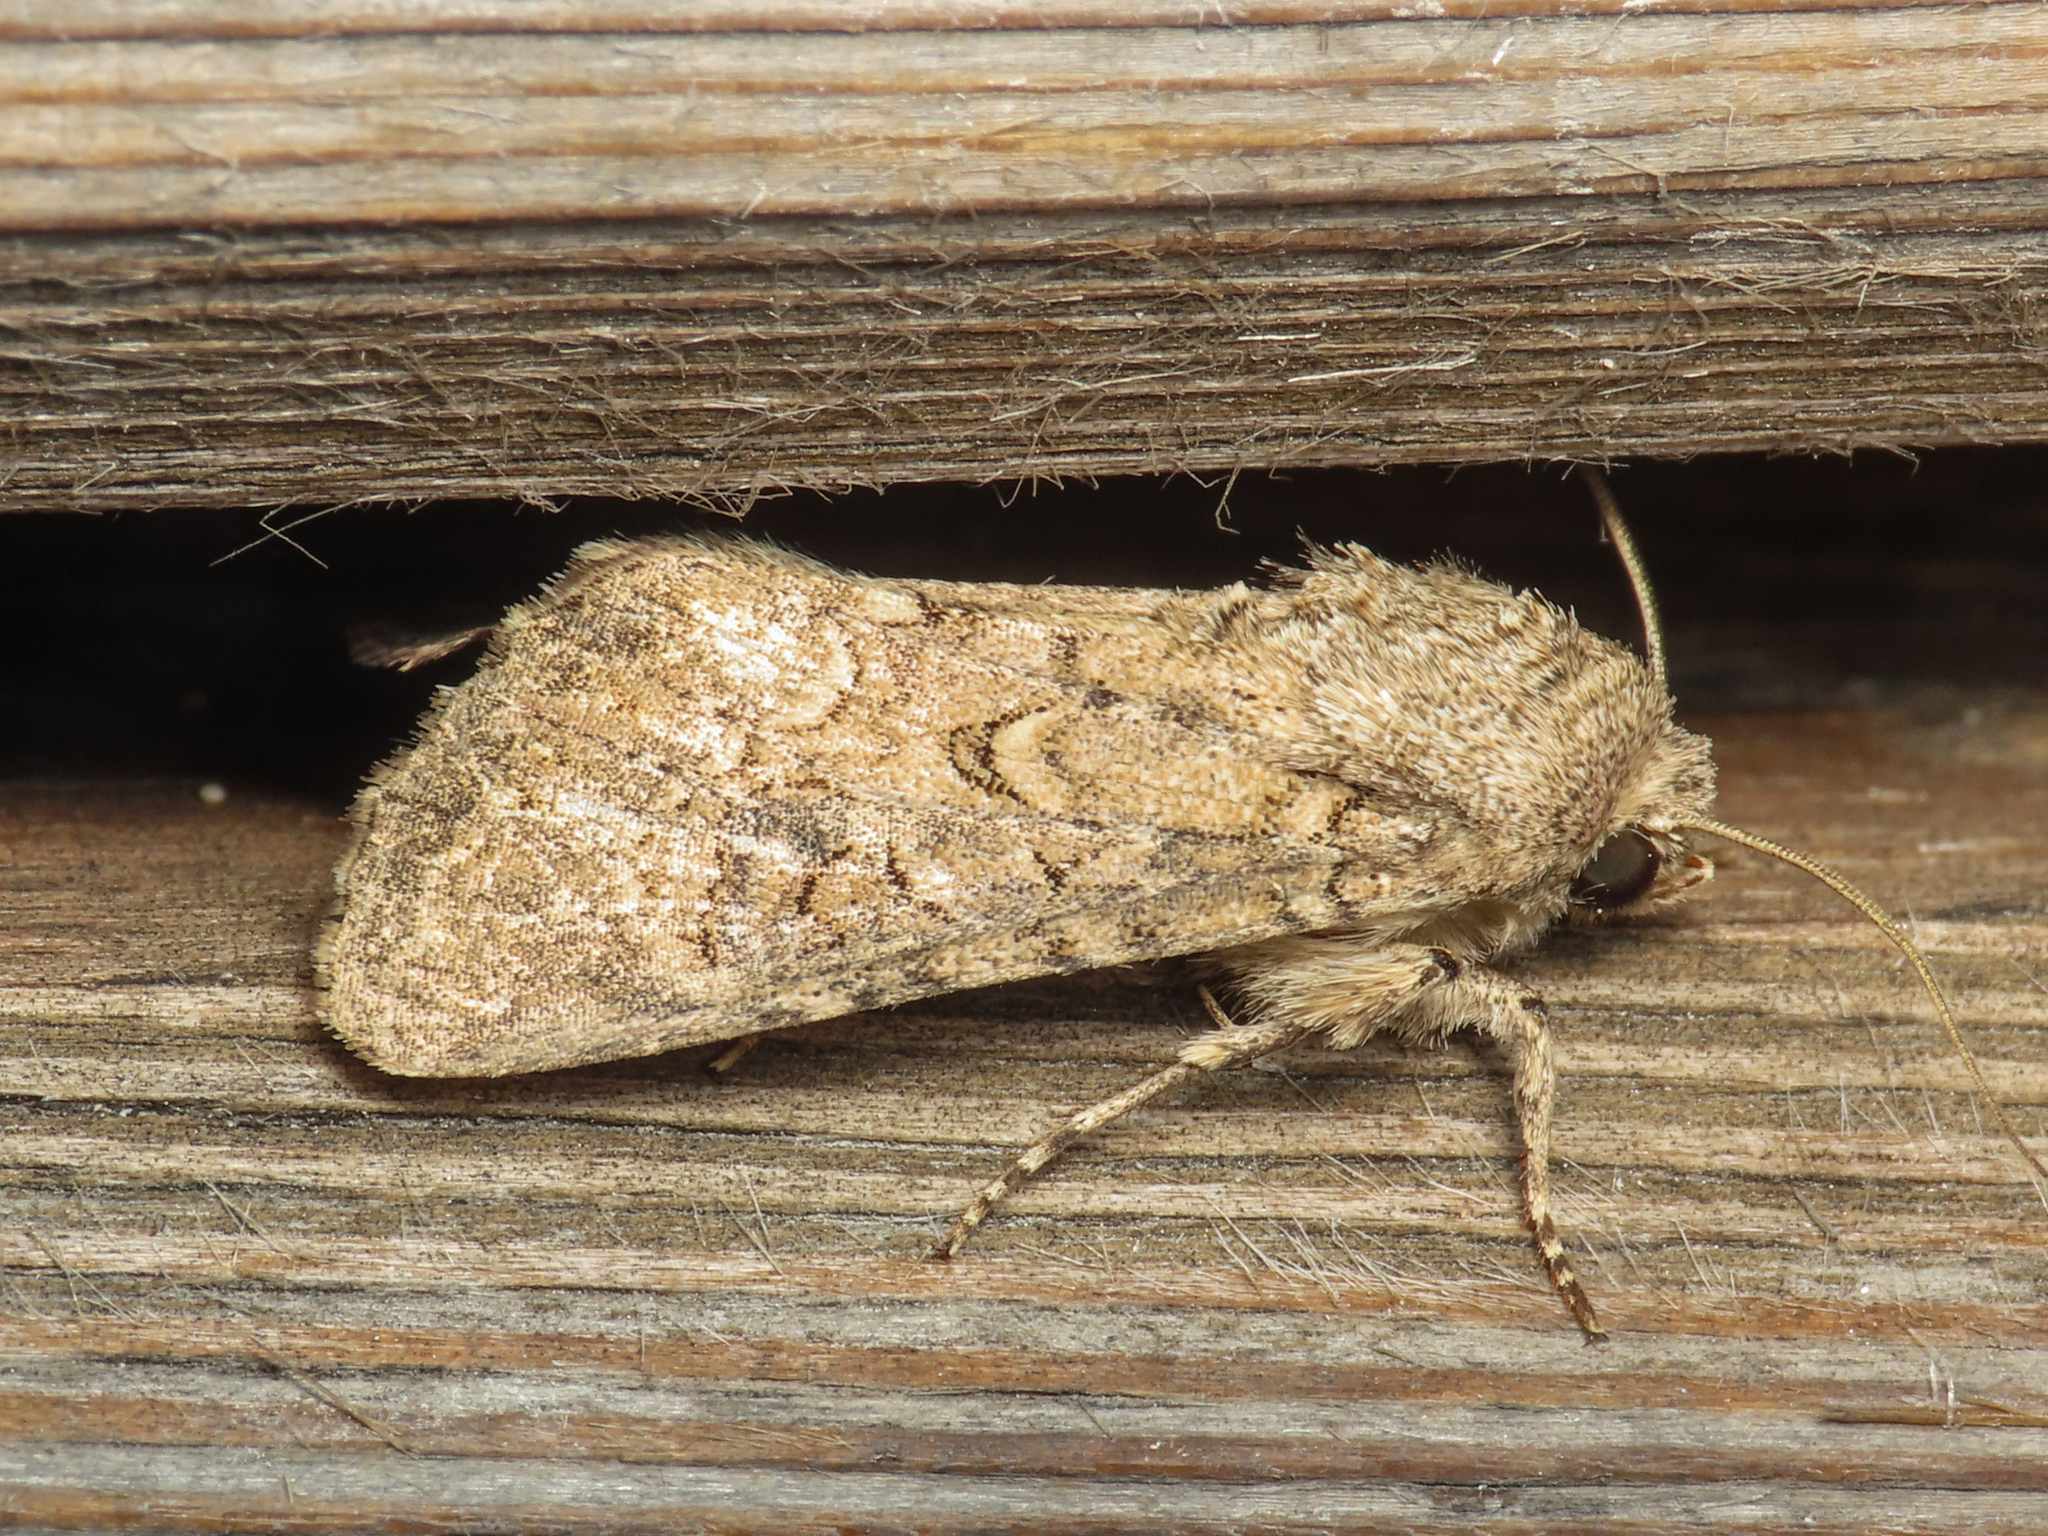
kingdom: Animalia
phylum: Arthropoda
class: Insecta
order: Lepidoptera
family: Noctuidae
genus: Anarta
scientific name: Anarta trifolii
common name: Clover cutworm moth
